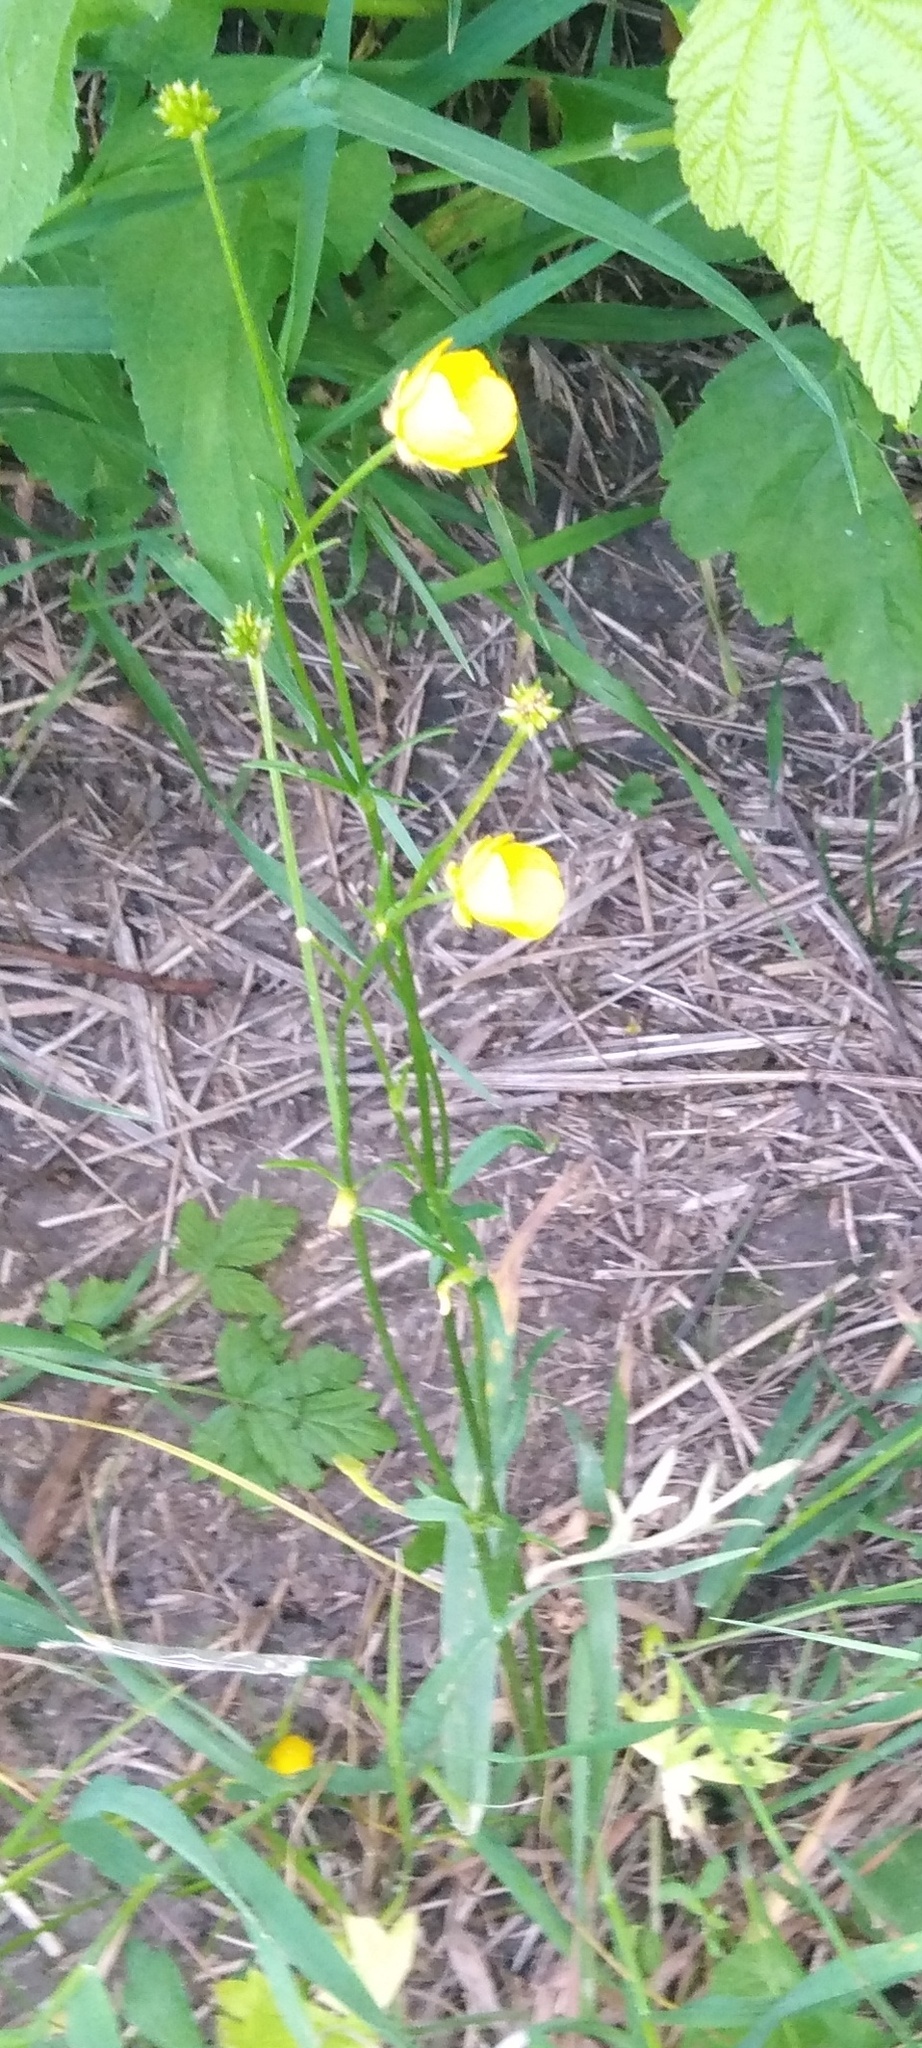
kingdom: Plantae
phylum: Tracheophyta
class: Magnoliopsida
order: Ranunculales
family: Ranunculaceae
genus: Ranunculus
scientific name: Ranunculus polyanthemos
